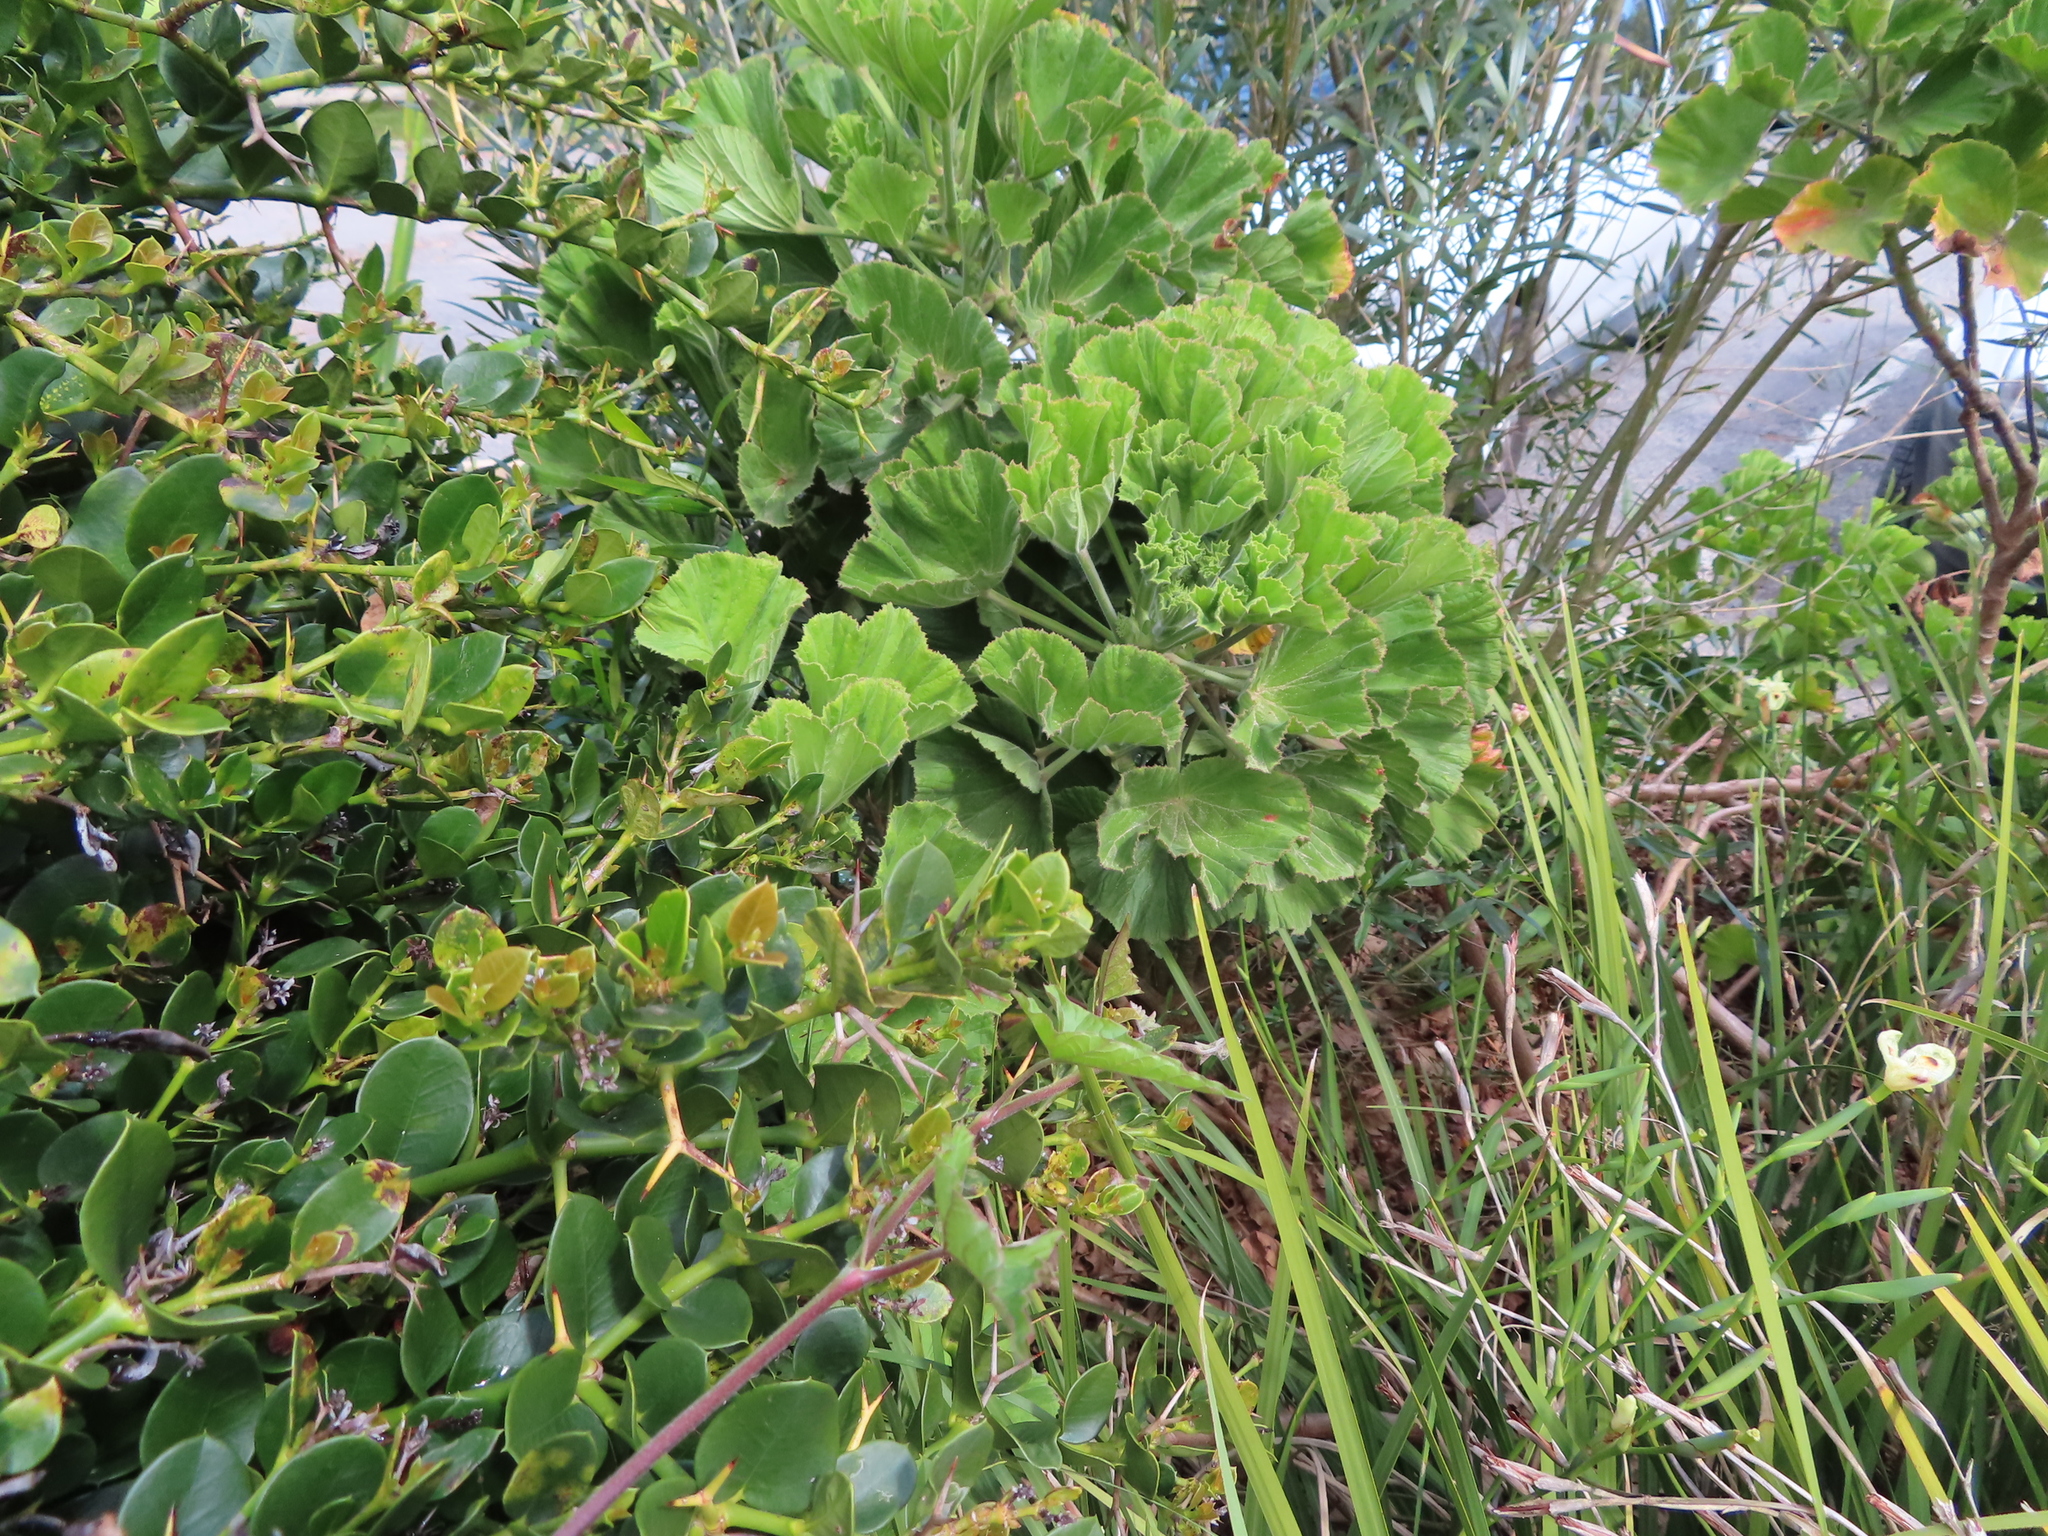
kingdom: Plantae
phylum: Tracheophyta
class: Magnoliopsida
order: Geraniales
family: Geraniaceae
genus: Pelargonium
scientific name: Pelargonium cucullatum
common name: Tree pelargonium
